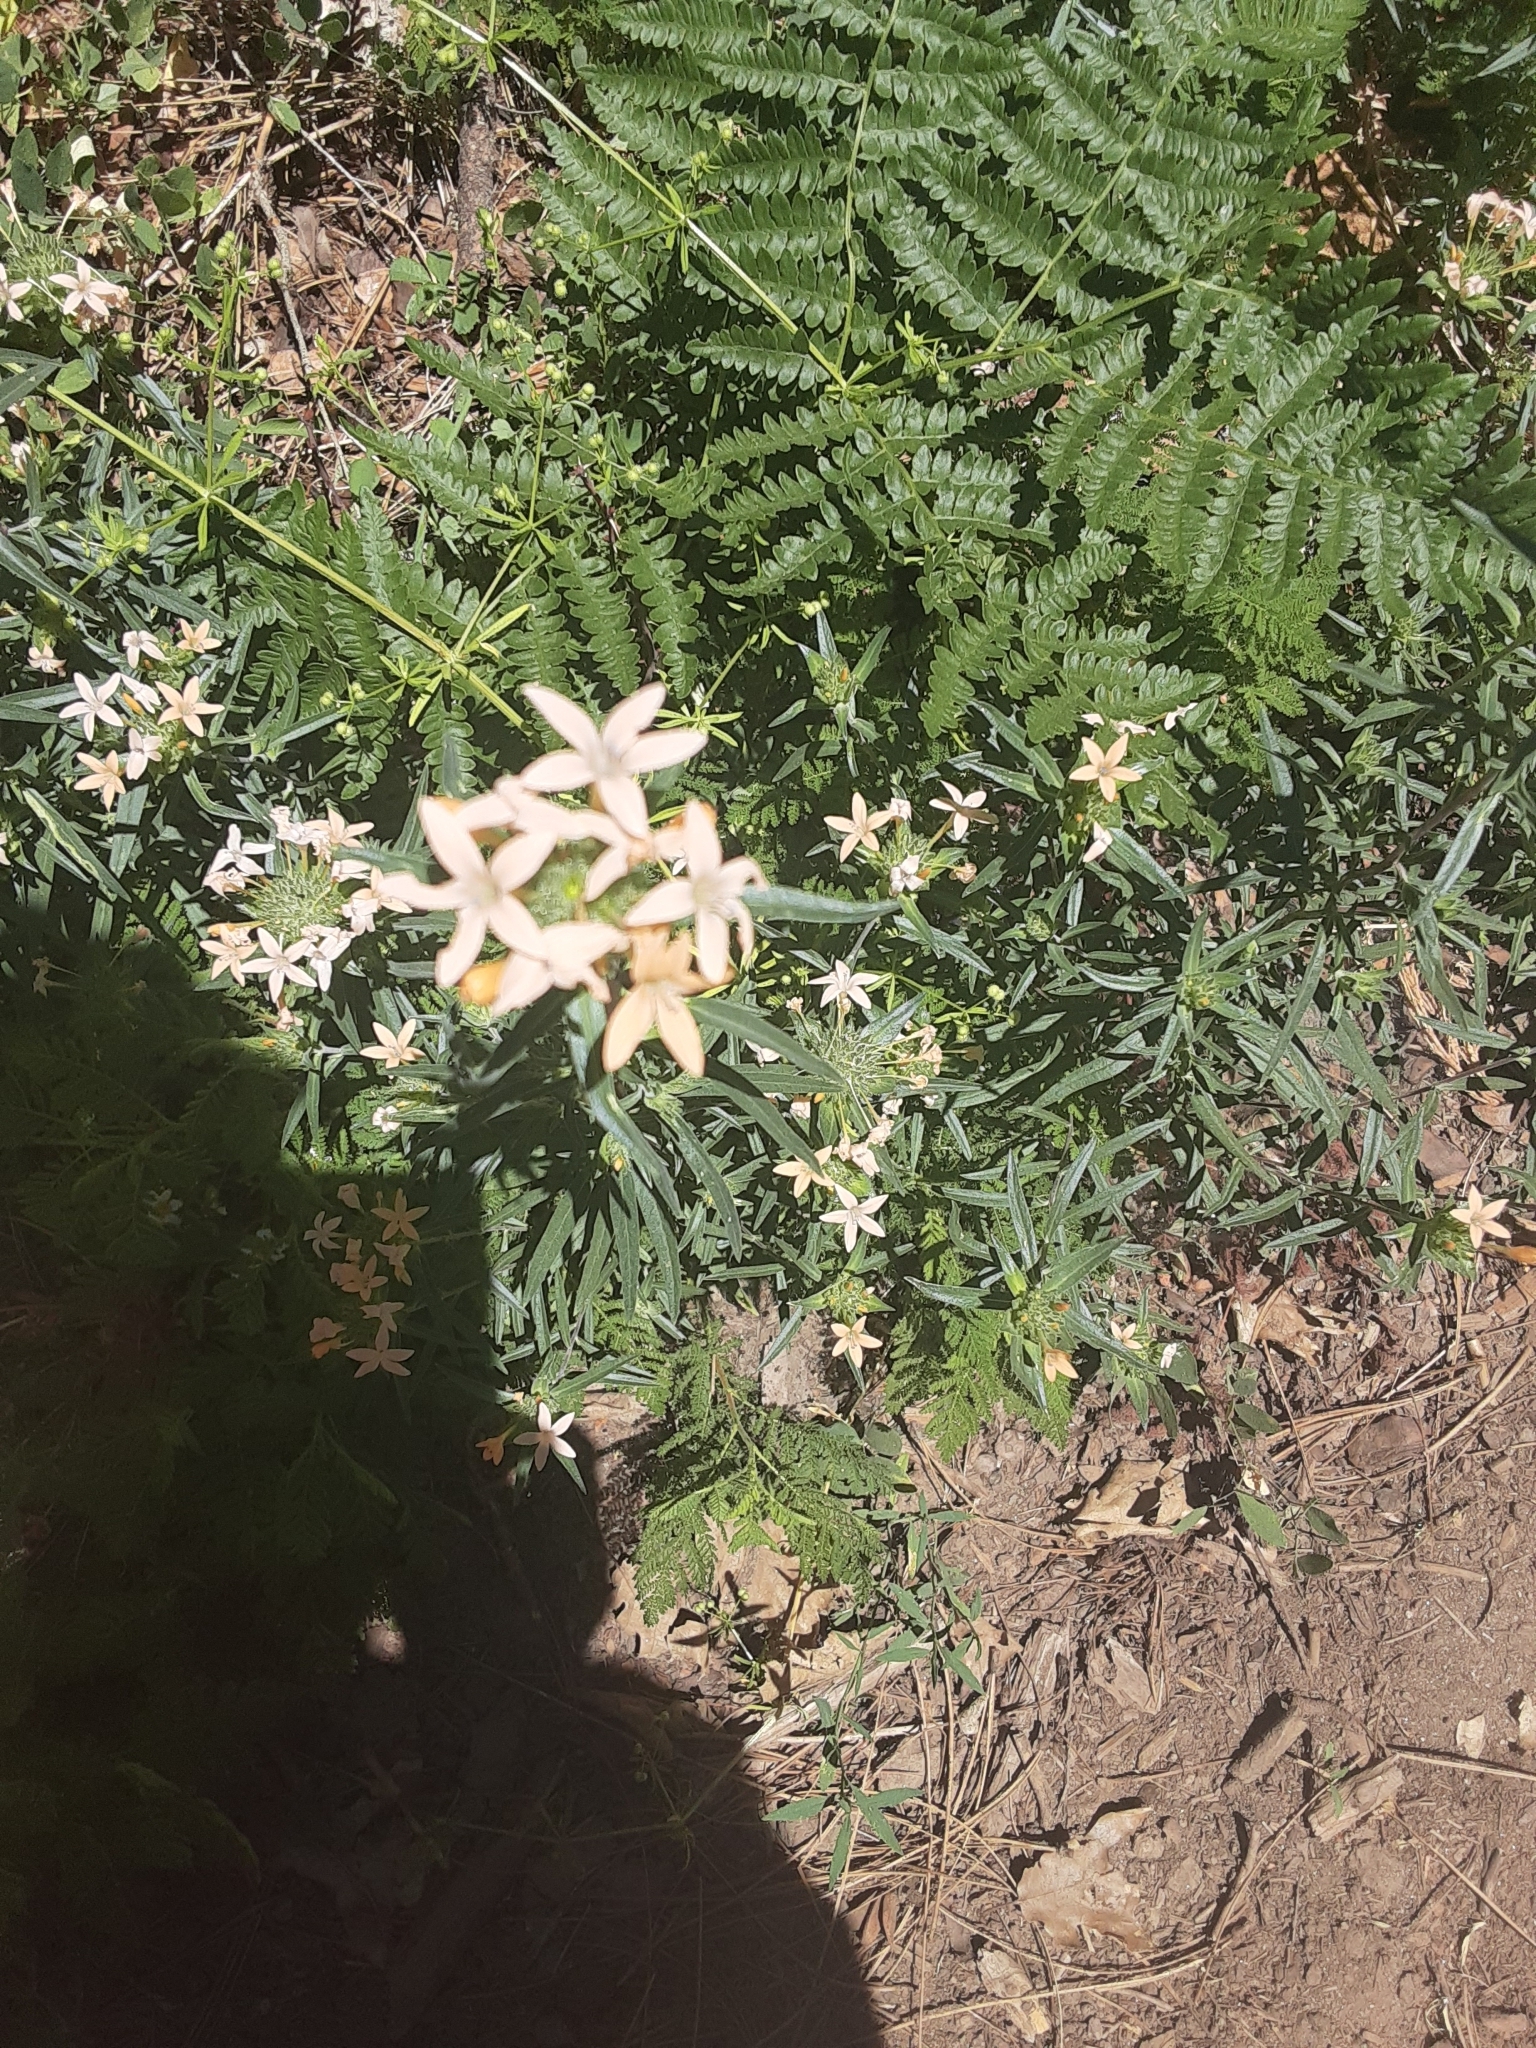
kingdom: Plantae
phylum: Tracheophyta
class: Magnoliopsida
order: Ericales
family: Polemoniaceae
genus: Collomia
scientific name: Collomia grandiflora
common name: California strawflower
